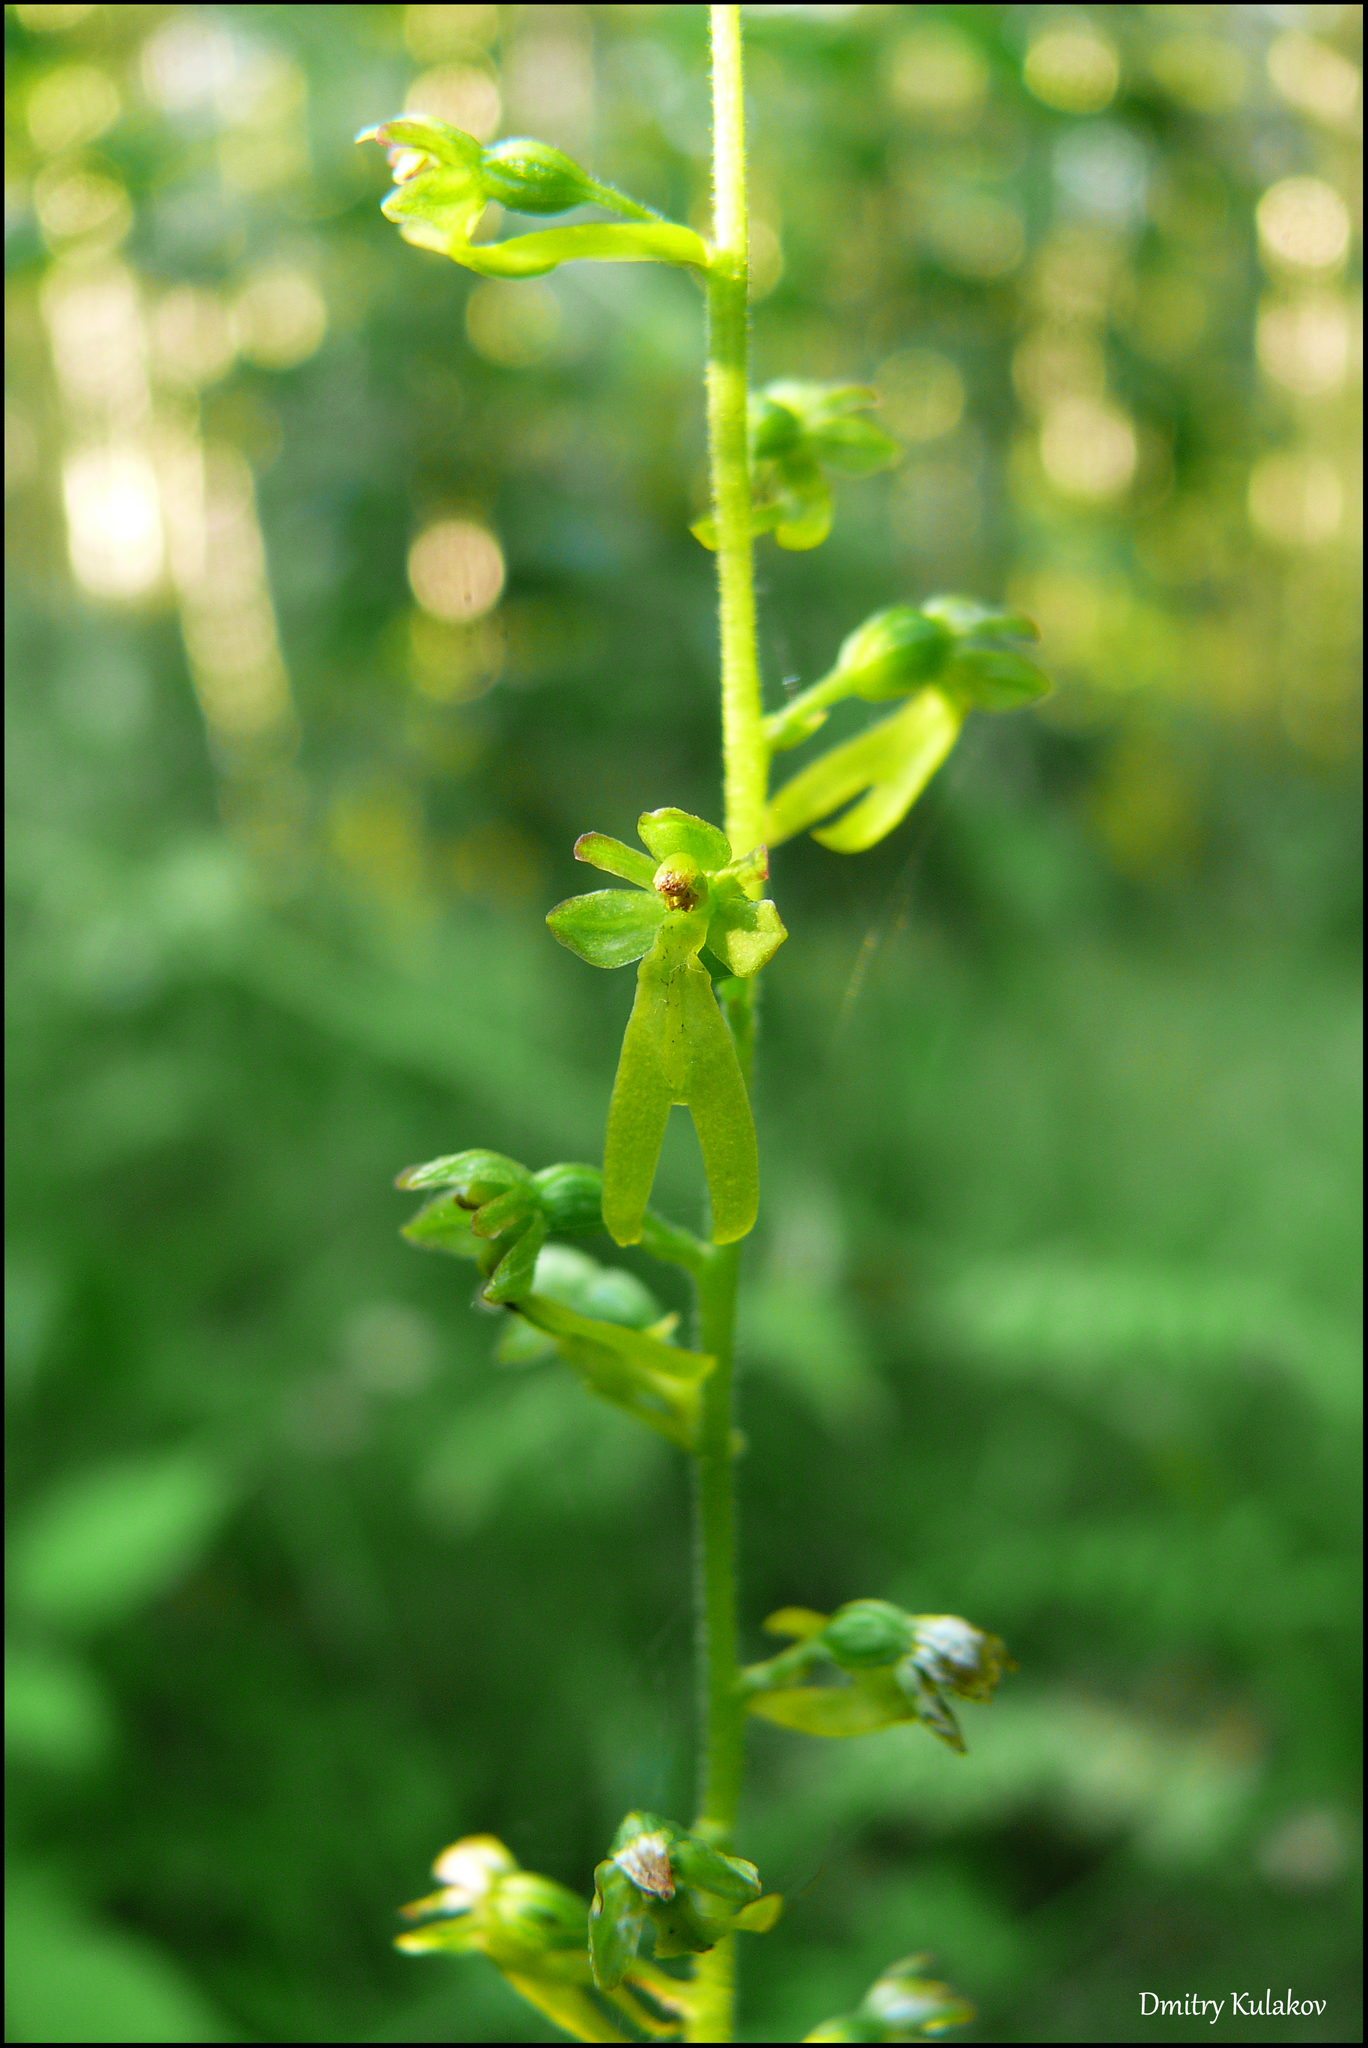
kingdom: Plantae
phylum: Tracheophyta
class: Liliopsida
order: Asparagales
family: Orchidaceae
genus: Neottia
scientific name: Neottia ovata
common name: Common twayblade
